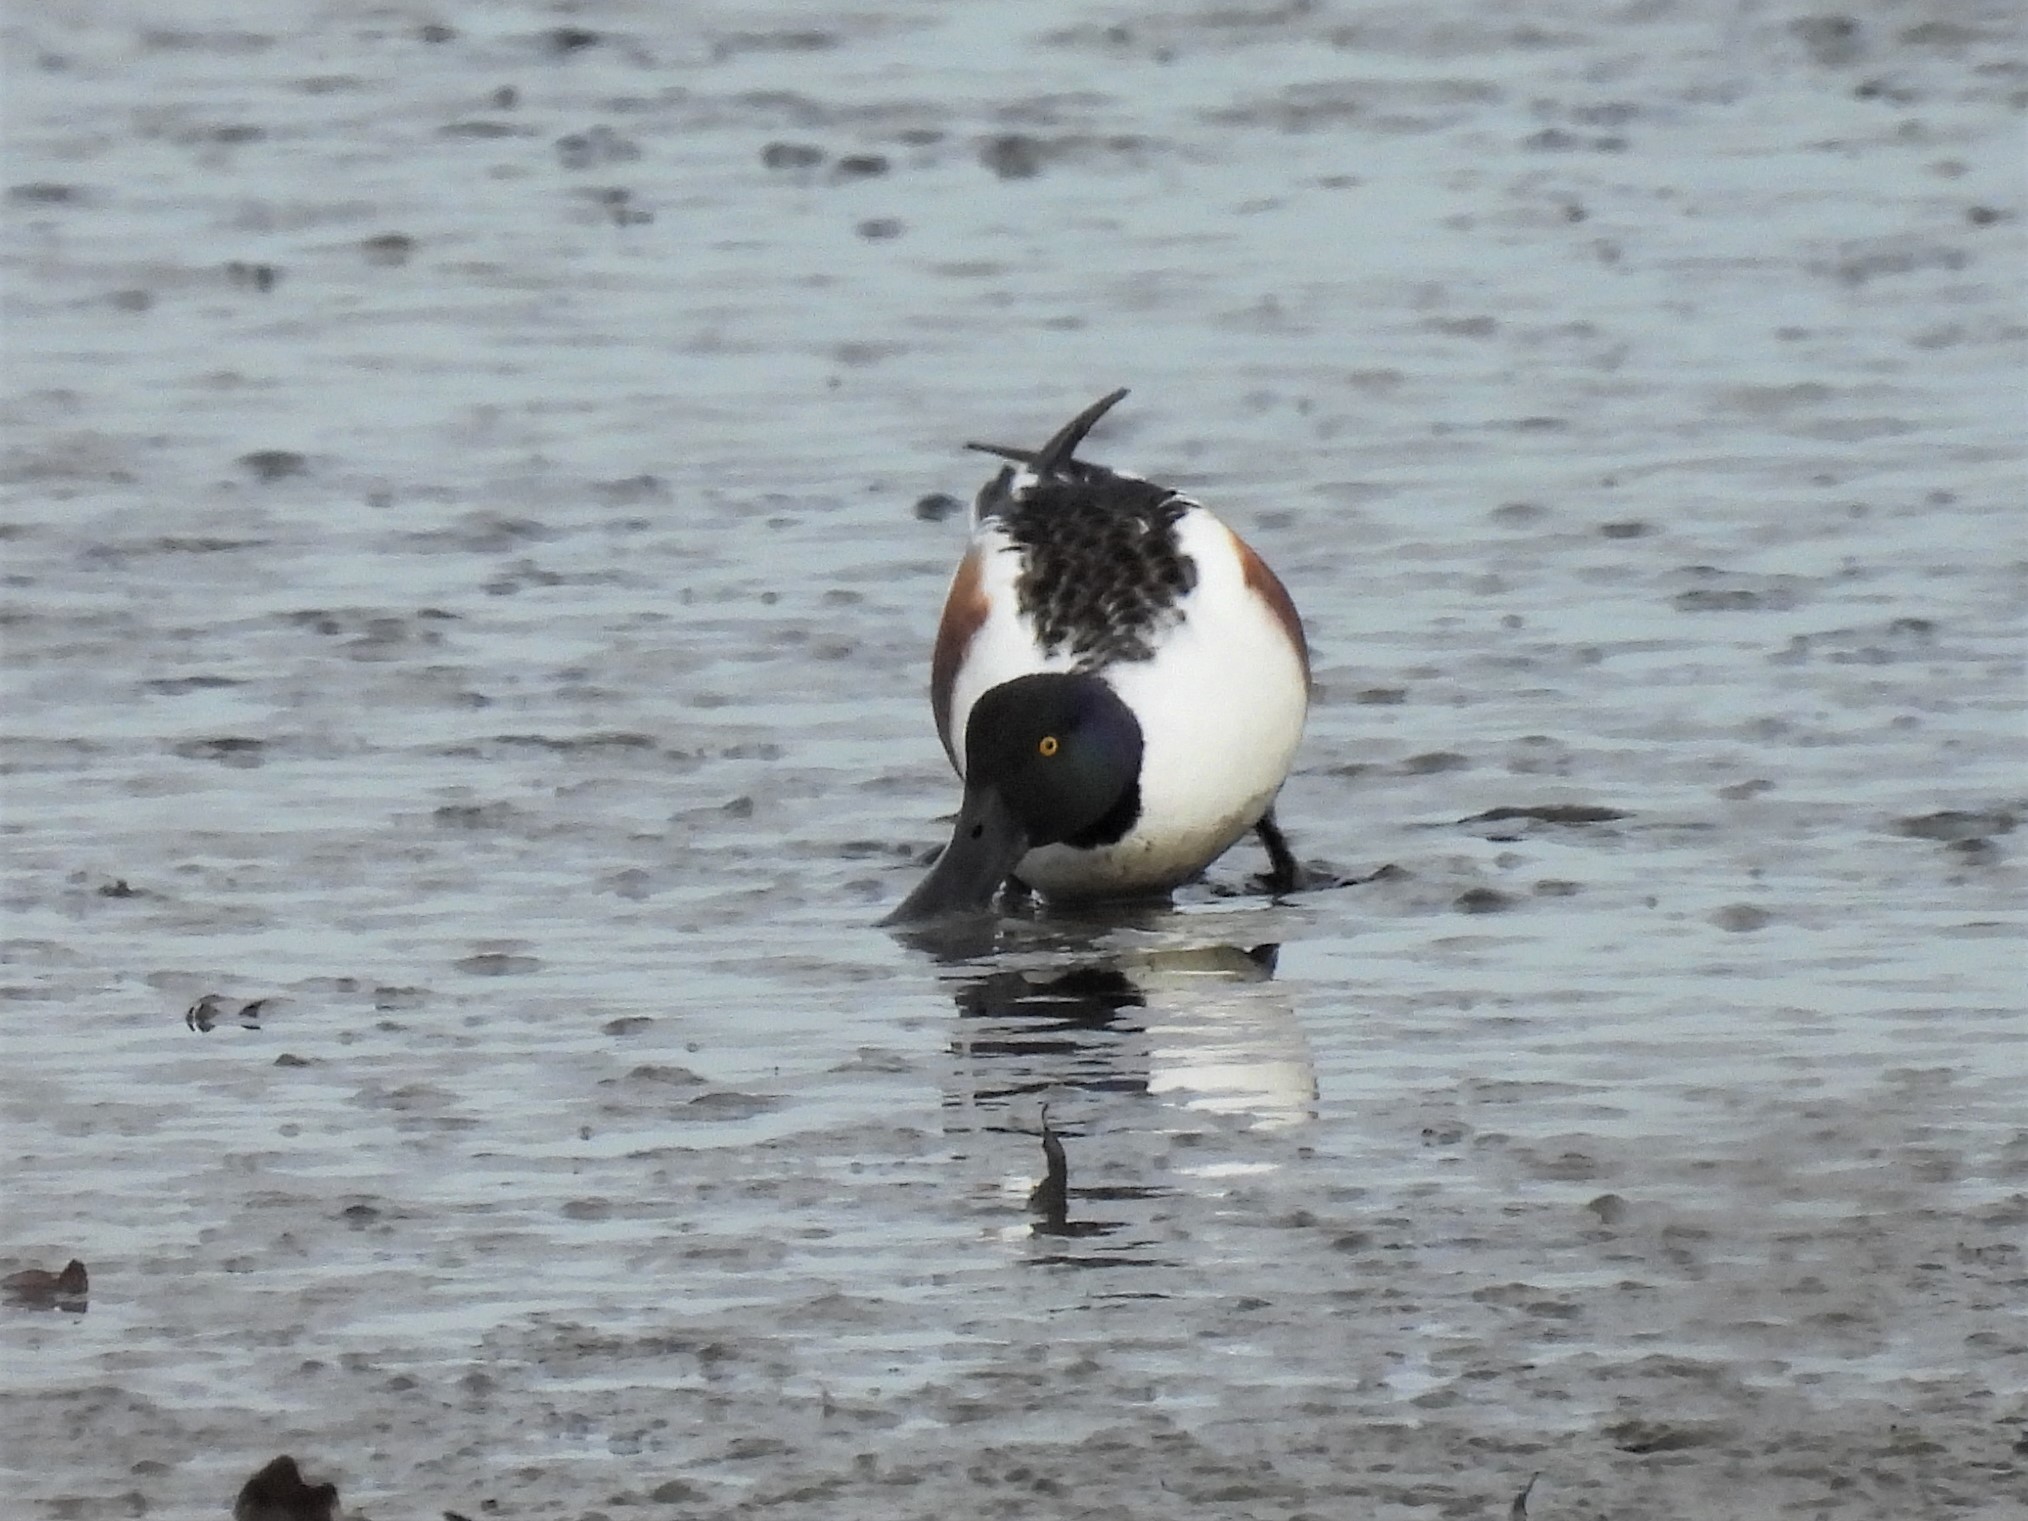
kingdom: Animalia
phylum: Chordata
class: Aves
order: Anseriformes
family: Anatidae
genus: Spatula
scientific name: Spatula clypeata
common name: Northern shoveler
